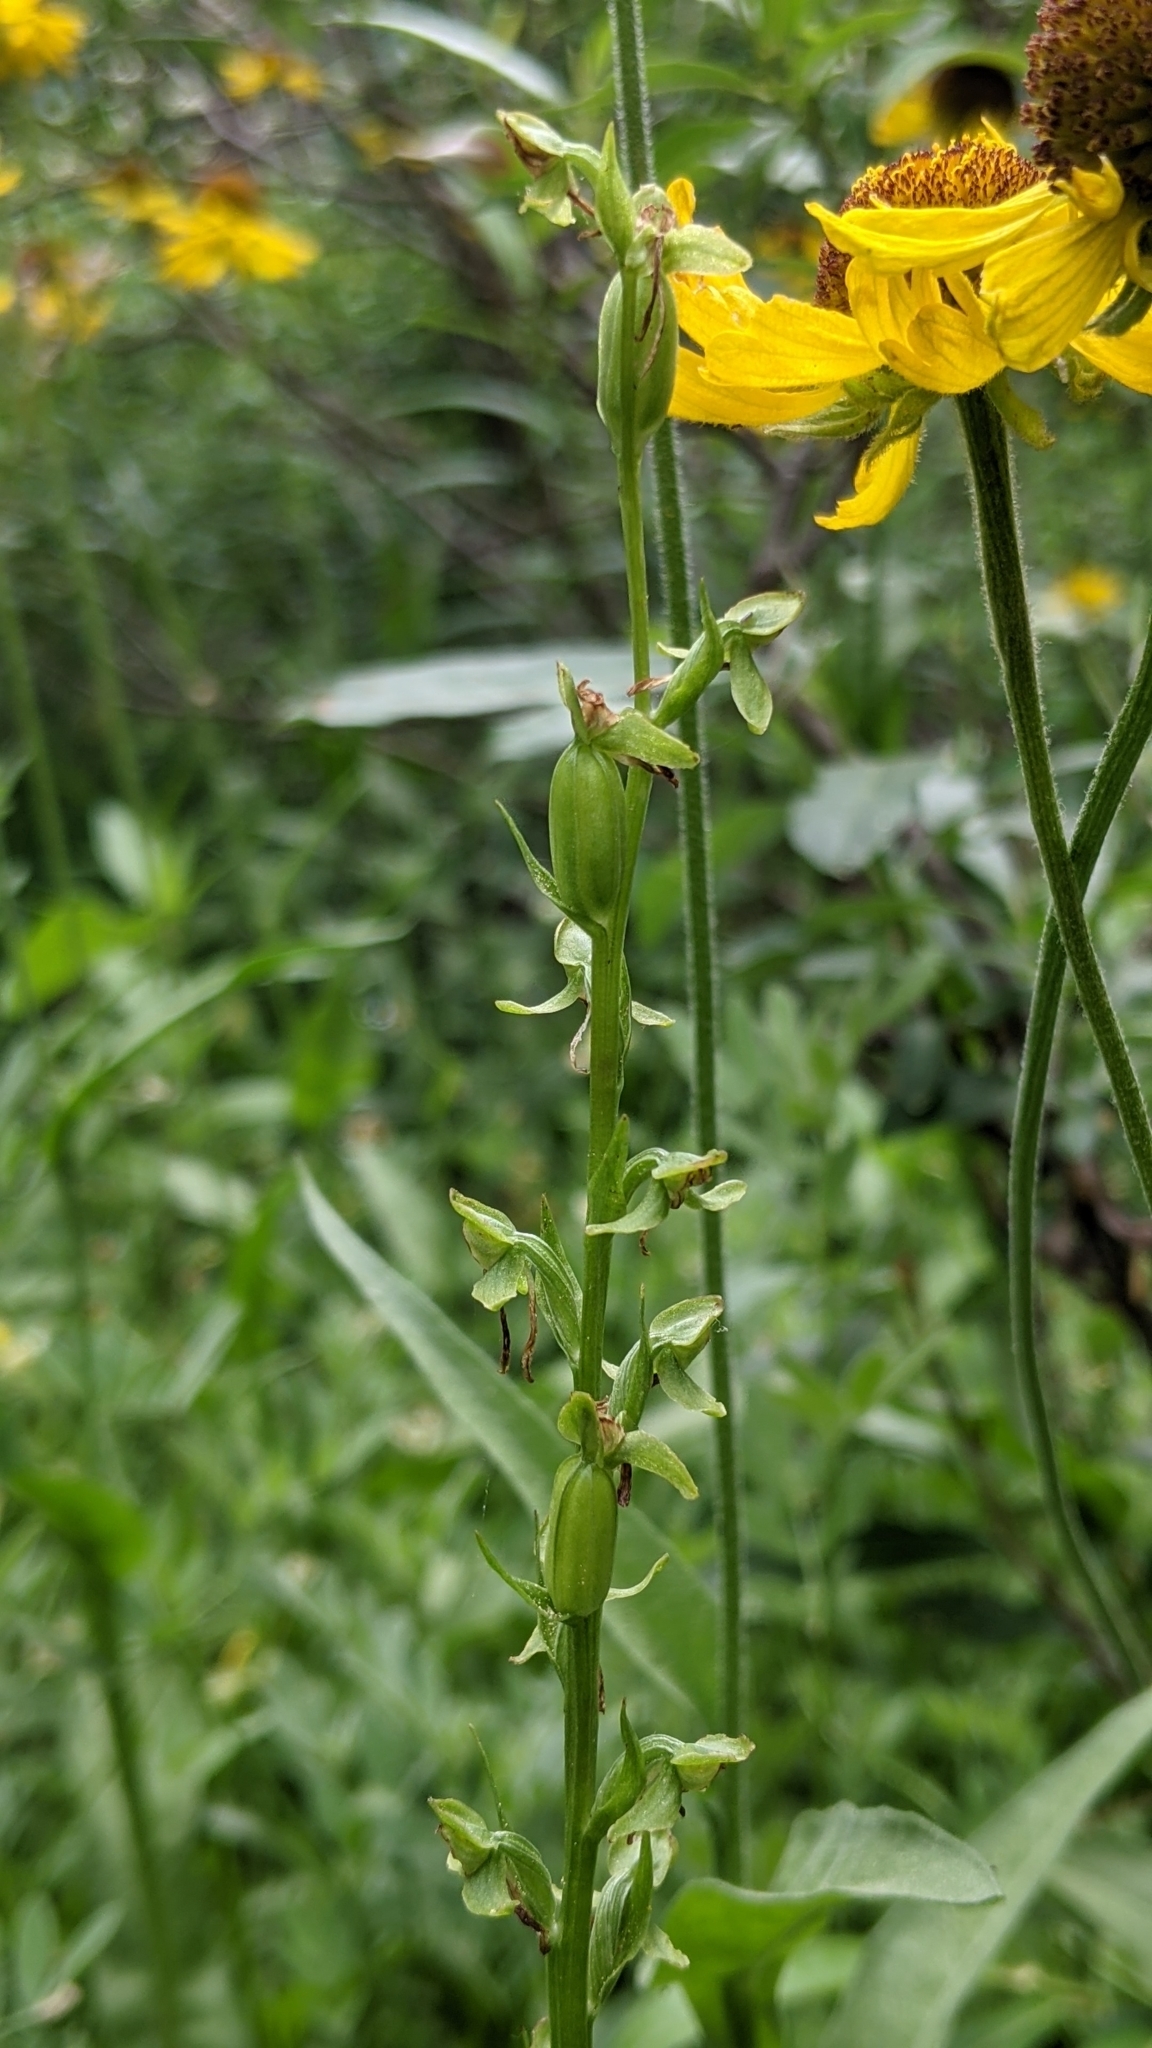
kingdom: Plantae
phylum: Tracheophyta
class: Liliopsida
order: Asparagales
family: Orchidaceae
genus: Platanthera
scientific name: Platanthera sparsiflora
